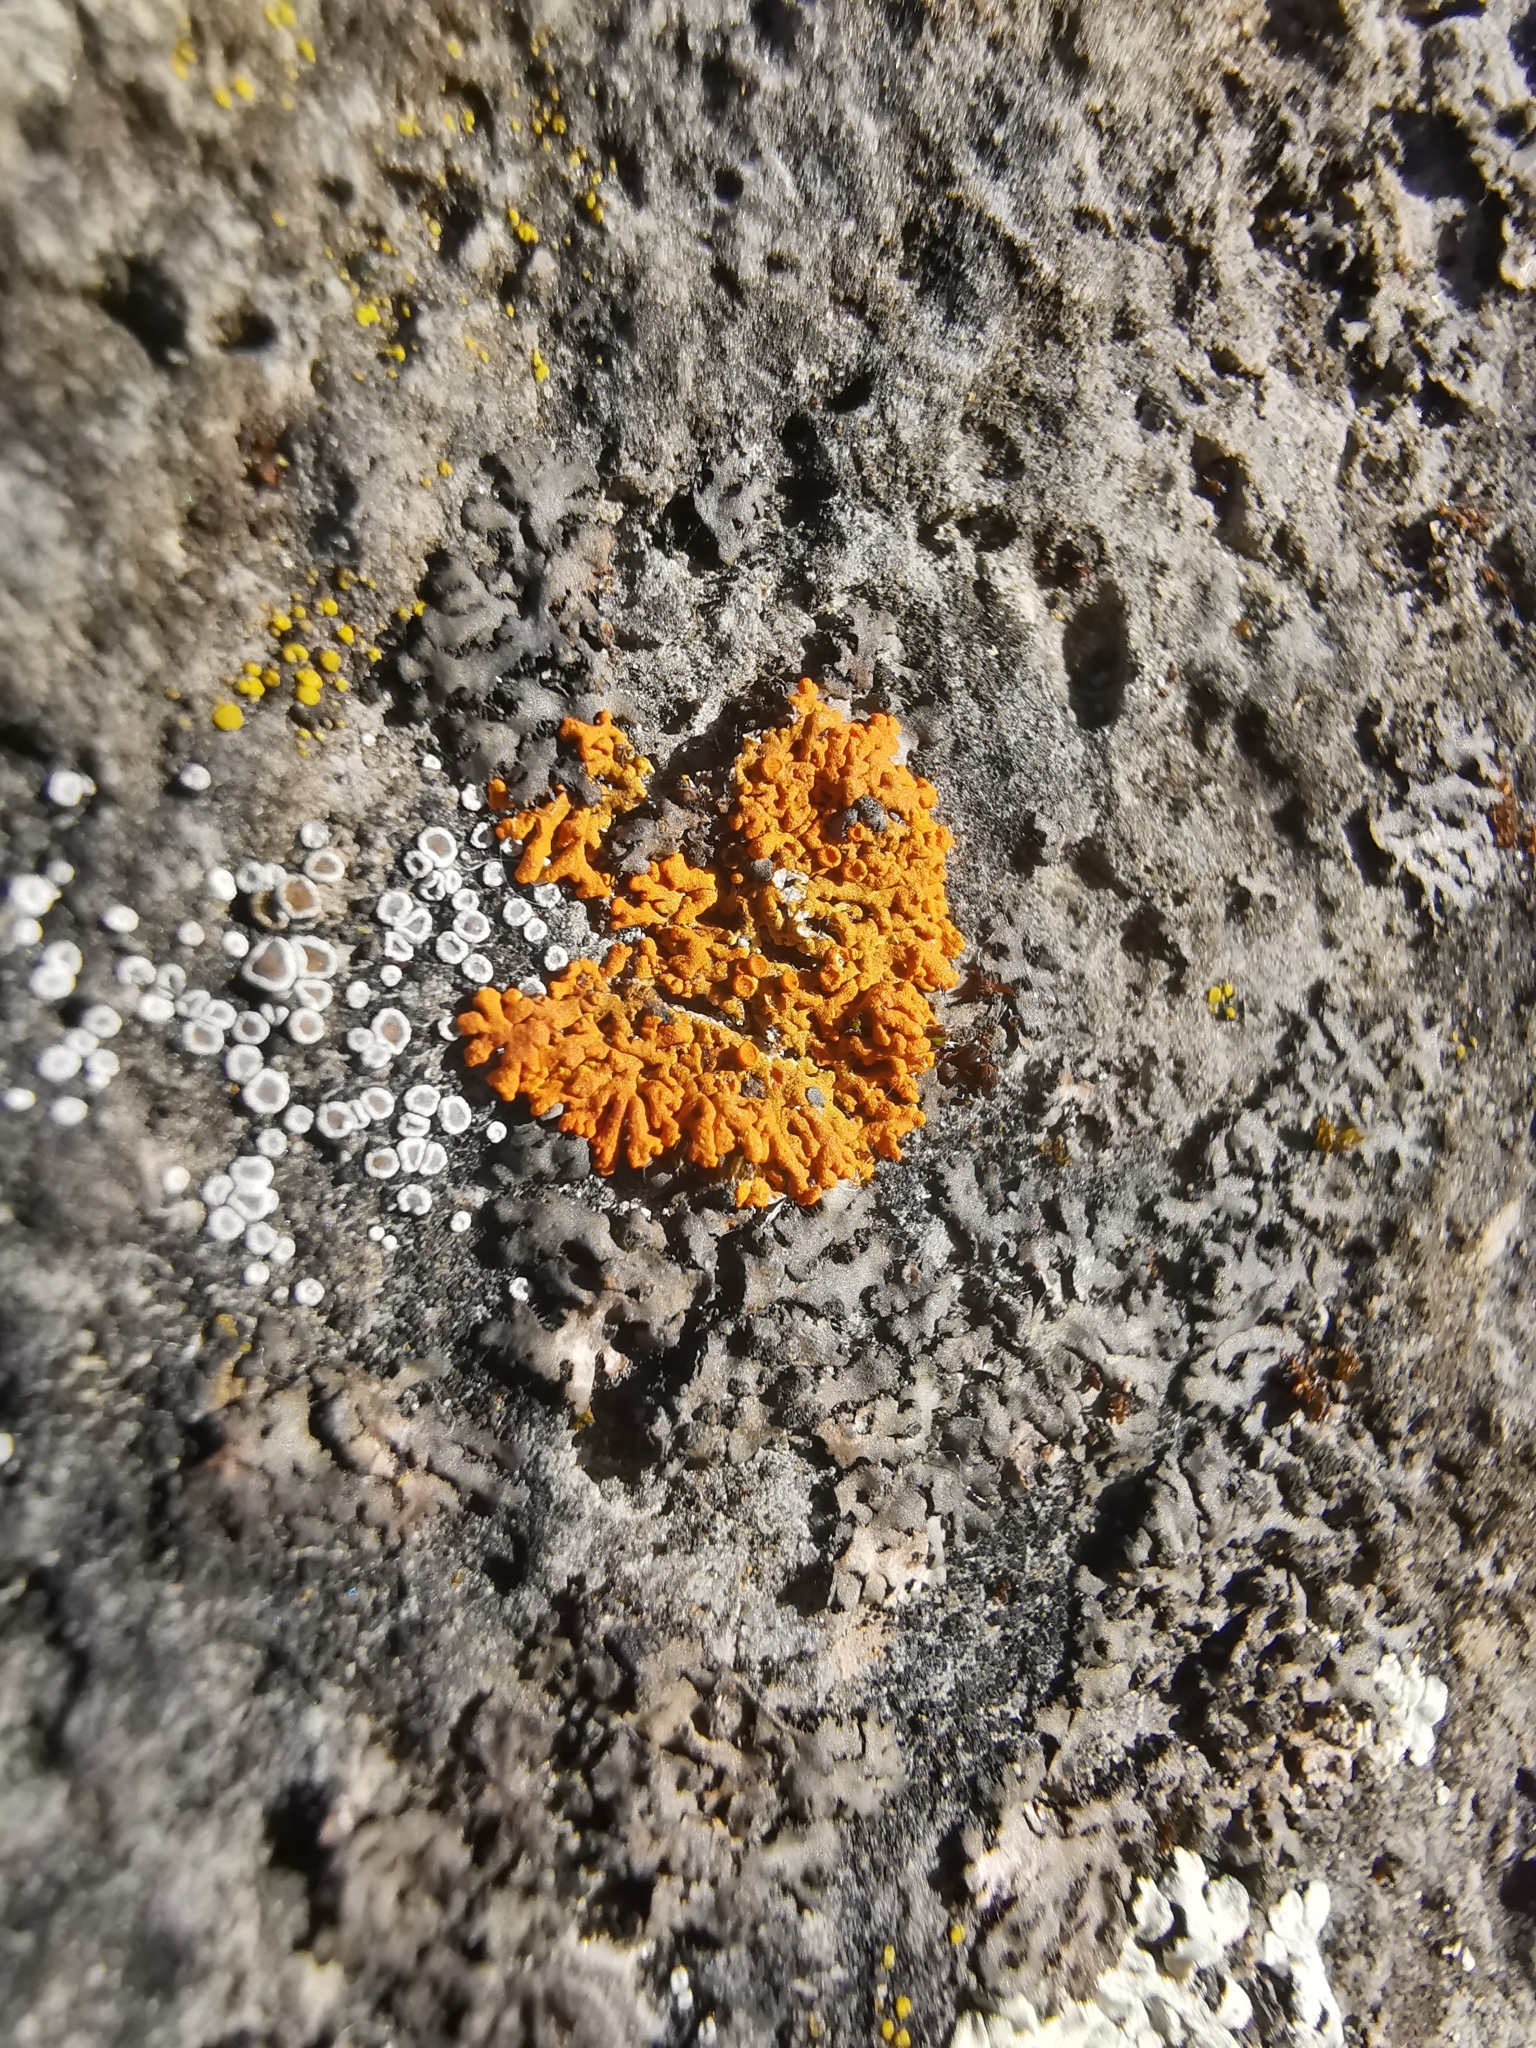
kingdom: Fungi
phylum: Ascomycota
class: Lecanoromycetes
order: Teloschistales
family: Teloschistaceae
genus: Xanthoria
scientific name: Xanthoria elegans
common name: Elegant sunburst lichen
